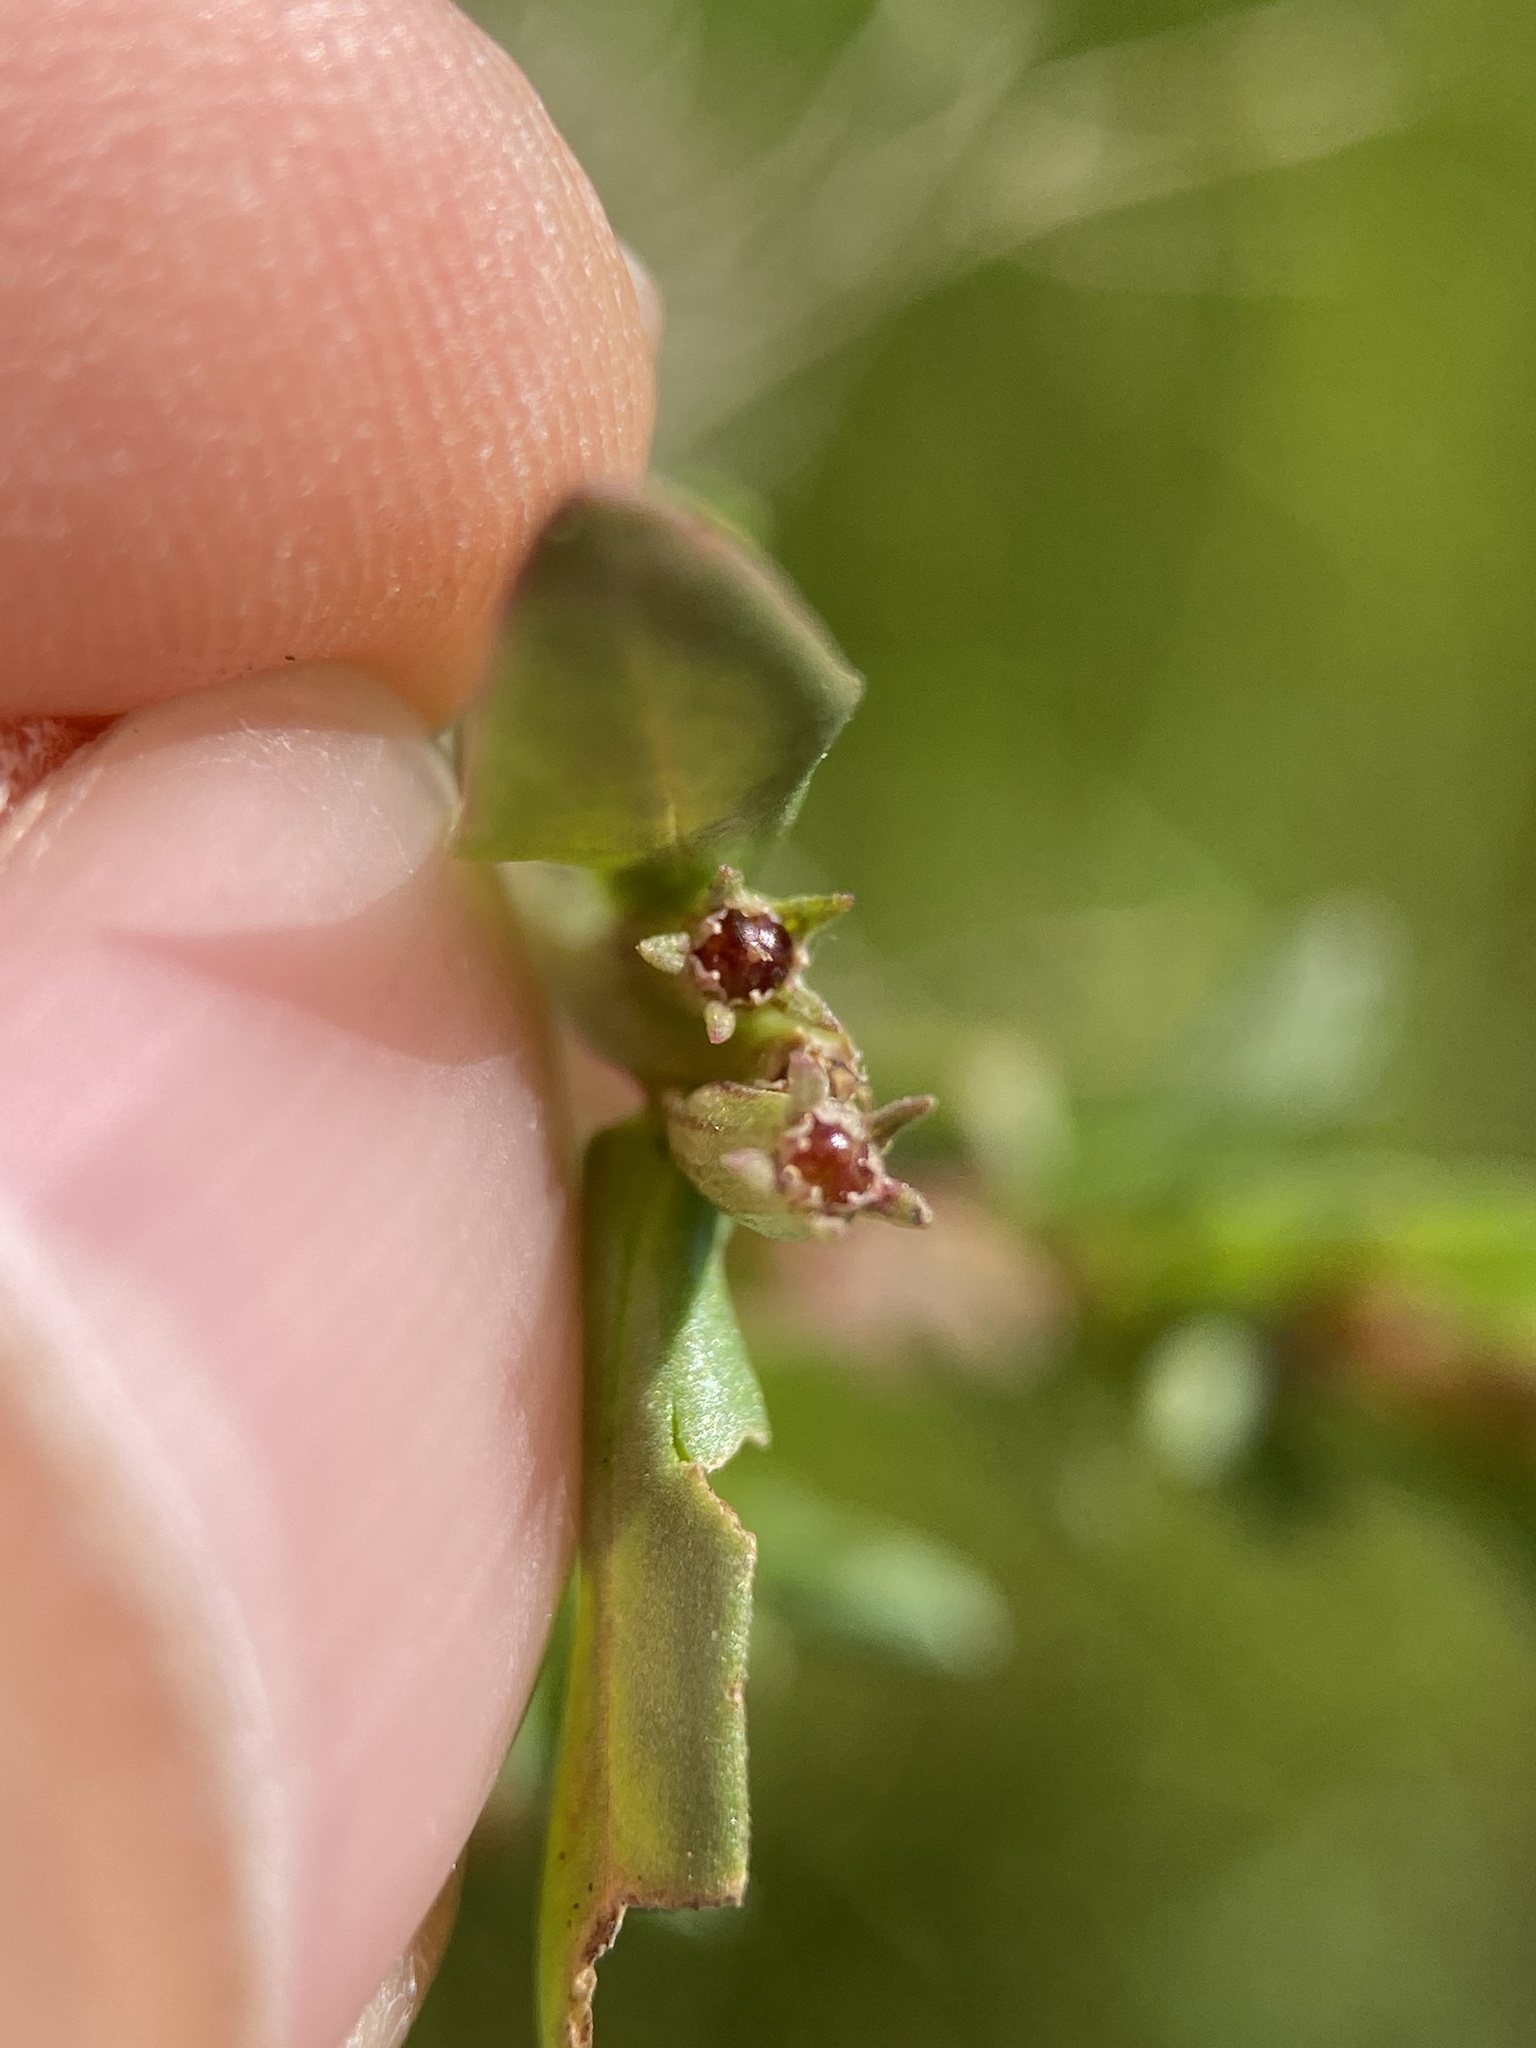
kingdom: Plantae
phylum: Tracheophyta
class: Magnoliopsida
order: Myrtales
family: Lythraceae
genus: Lythrum
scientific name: Lythrum hyssopifolia
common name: Grass-poly
